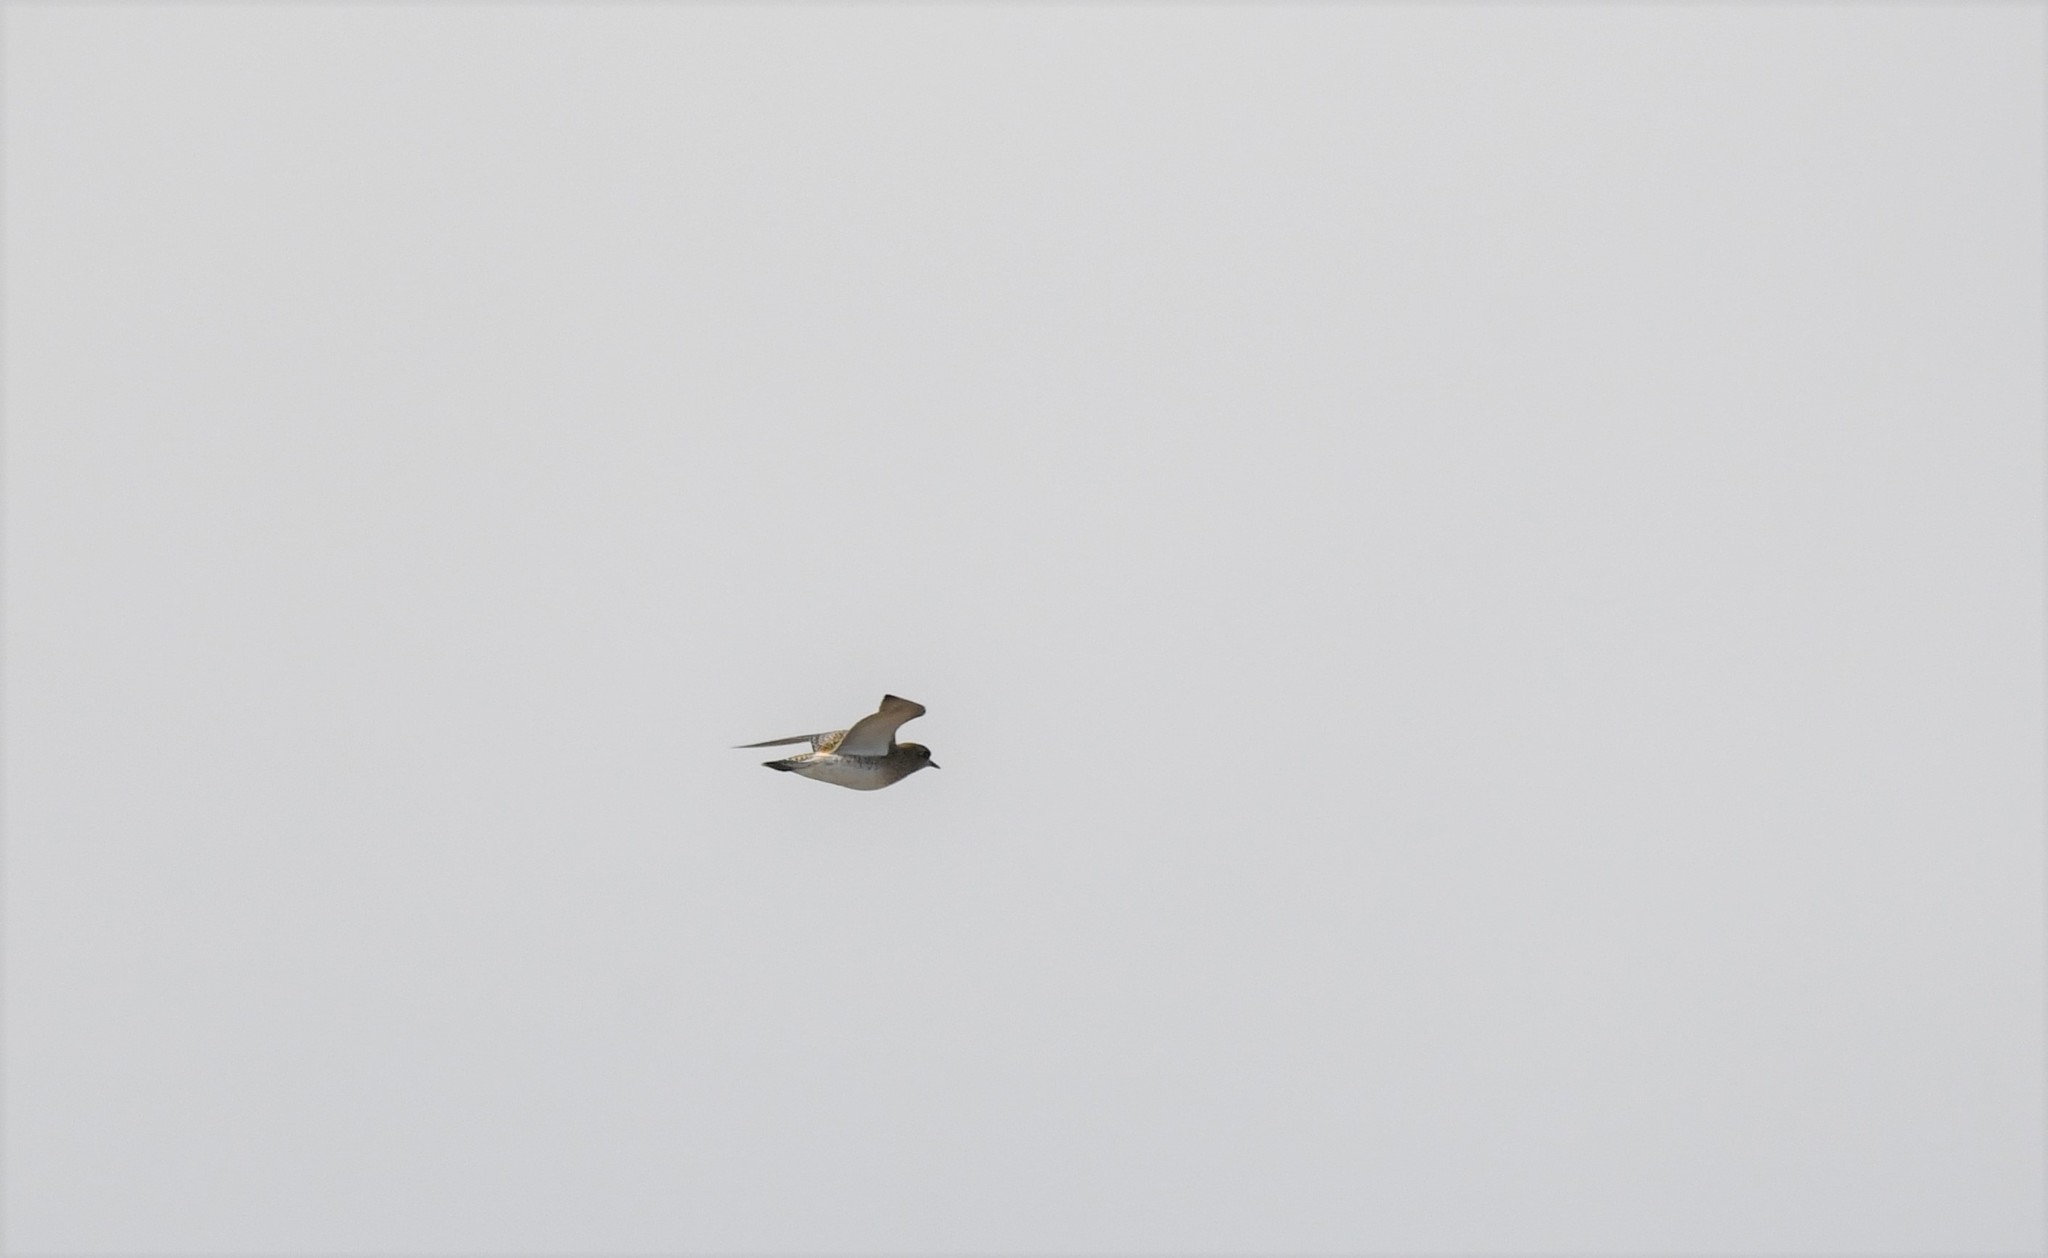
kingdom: Animalia
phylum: Chordata
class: Aves
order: Charadriiformes
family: Charadriidae
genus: Pluvialis
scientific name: Pluvialis apricaria
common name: European golden plover
